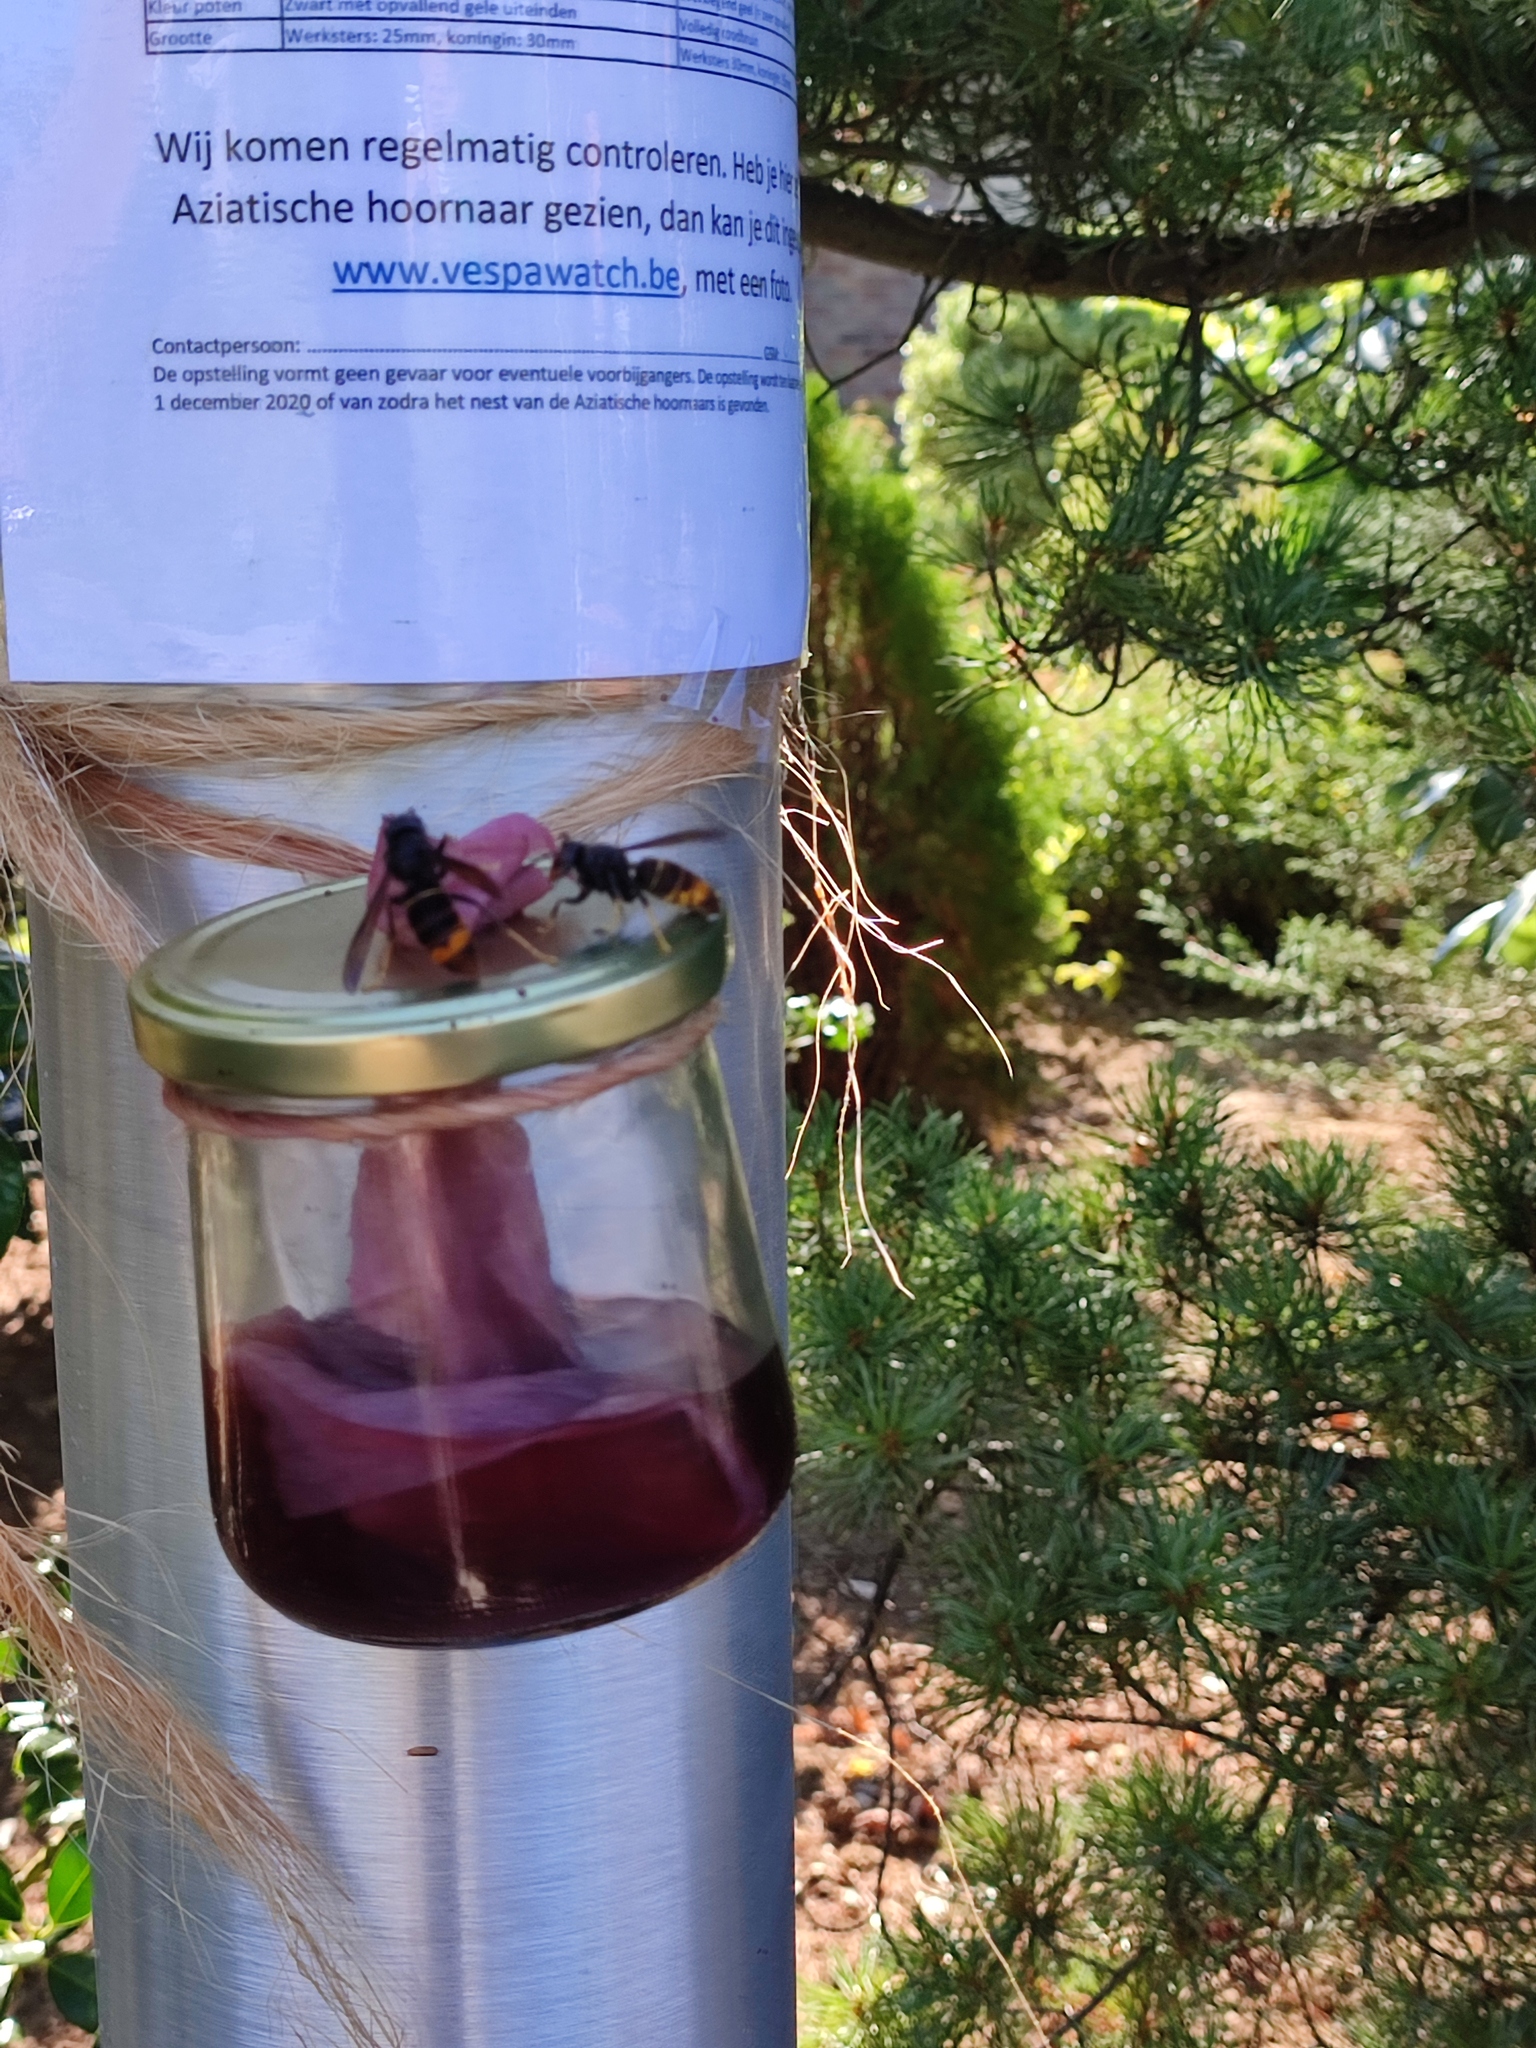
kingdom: Animalia
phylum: Arthropoda
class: Insecta
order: Hymenoptera
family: Vespidae
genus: Vespa
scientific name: Vespa velutina
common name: Asian hornet
